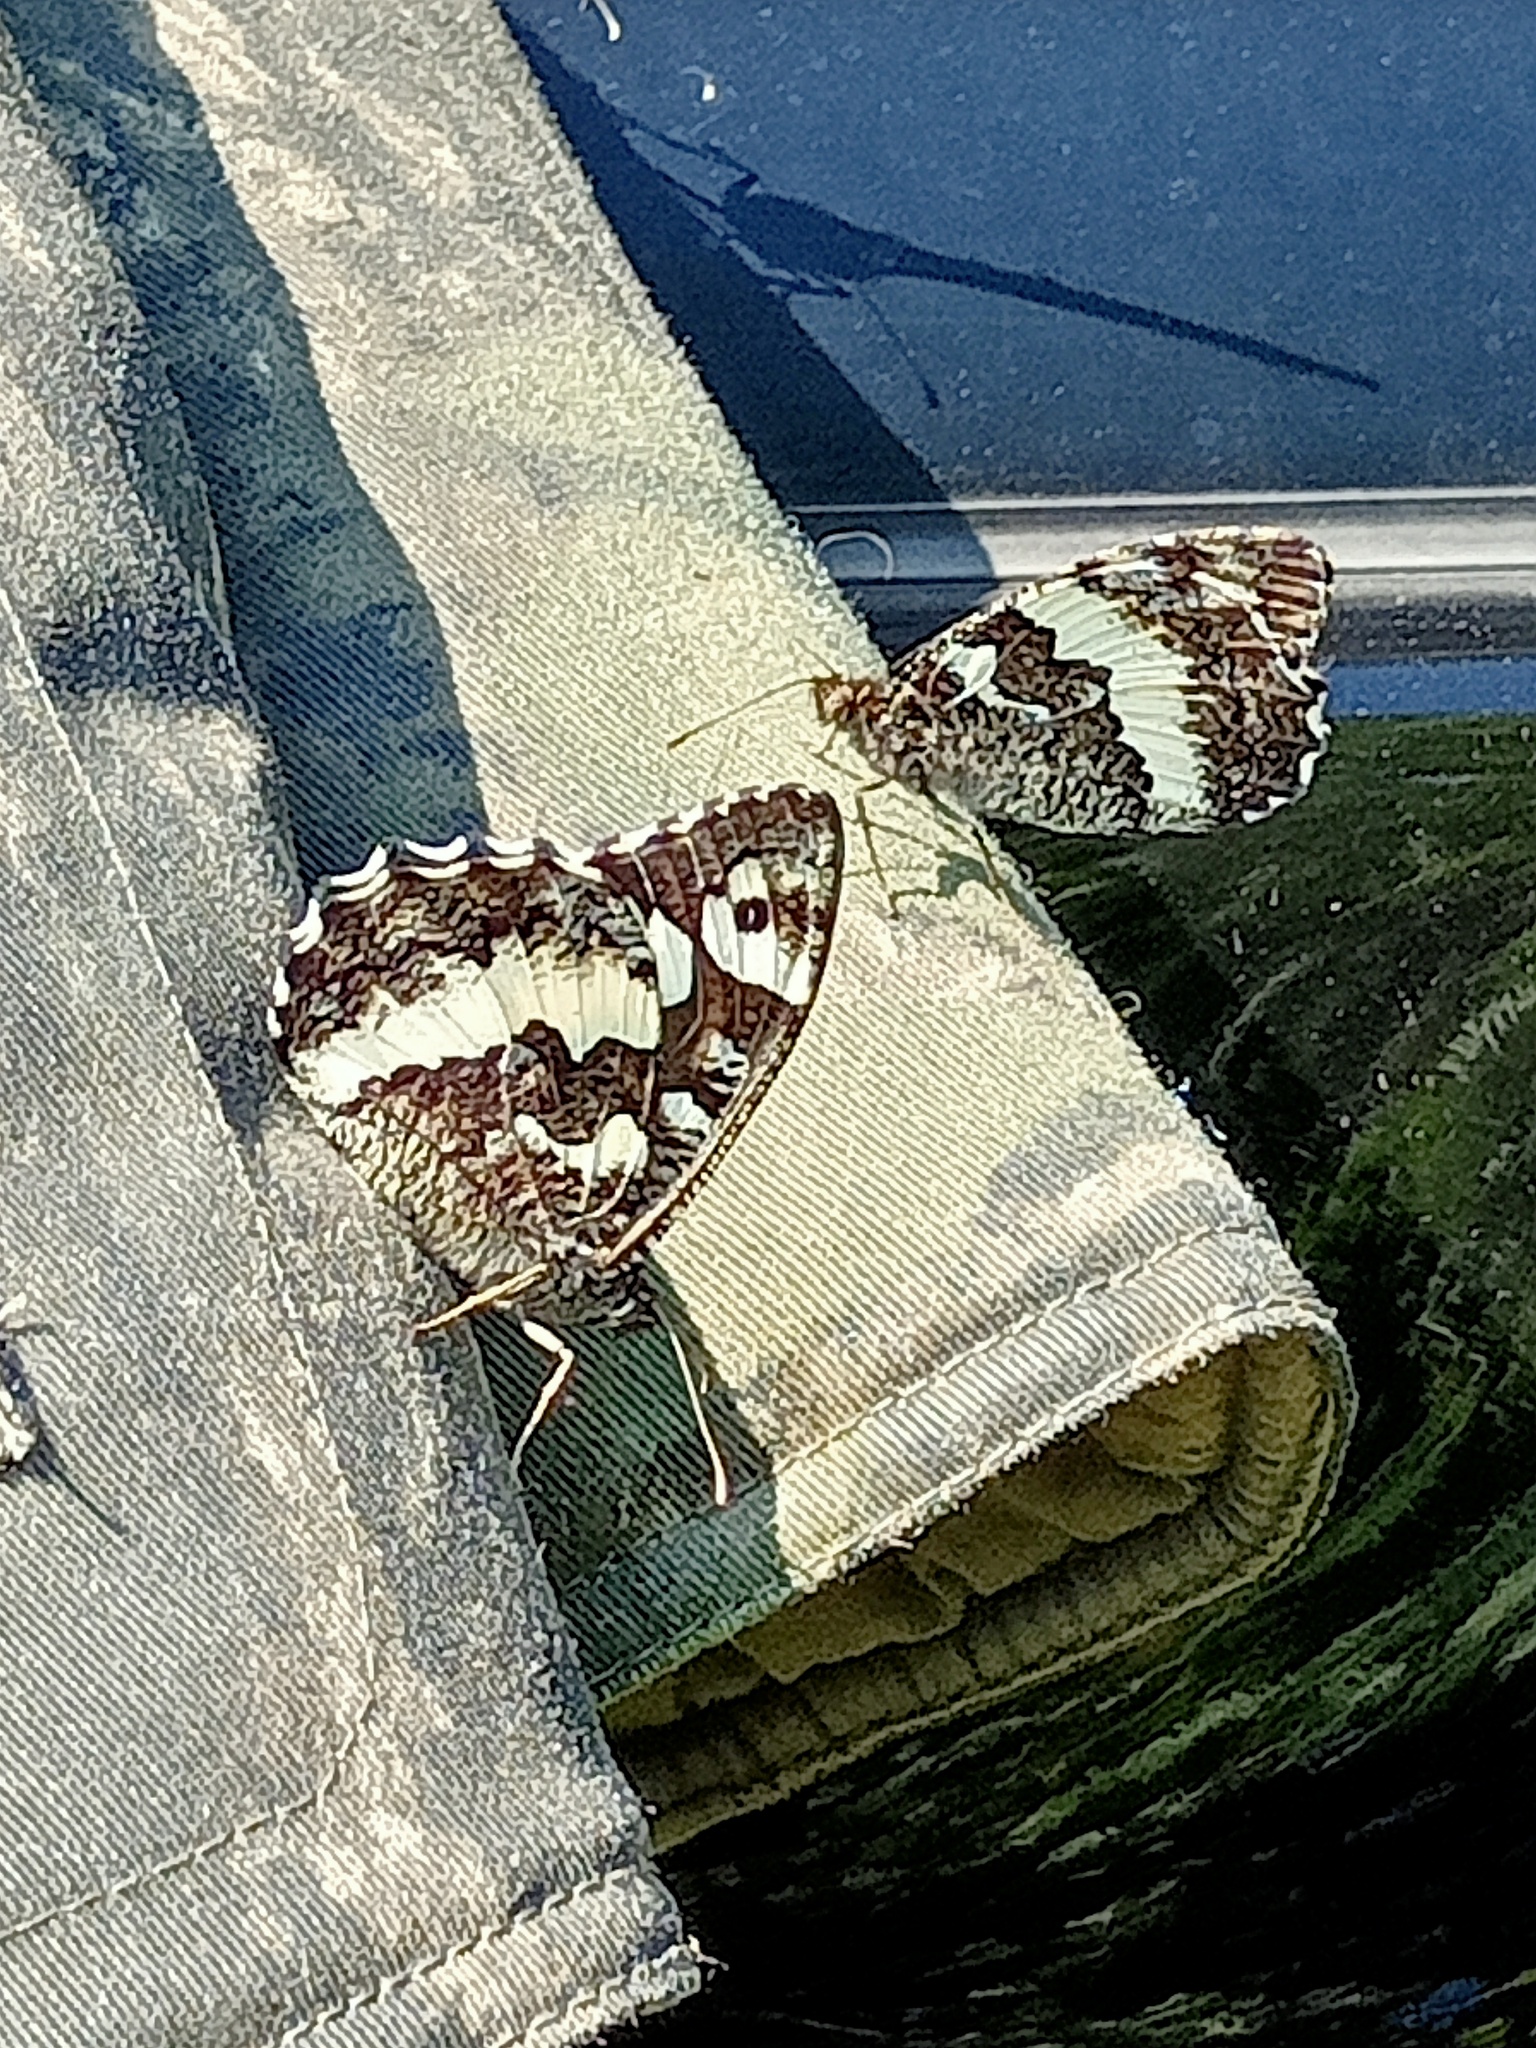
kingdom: Animalia
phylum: Arthropoda
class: Insecta
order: Lepidoptera
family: Lycaenidae
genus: Loweia
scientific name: Loweia tityrus
